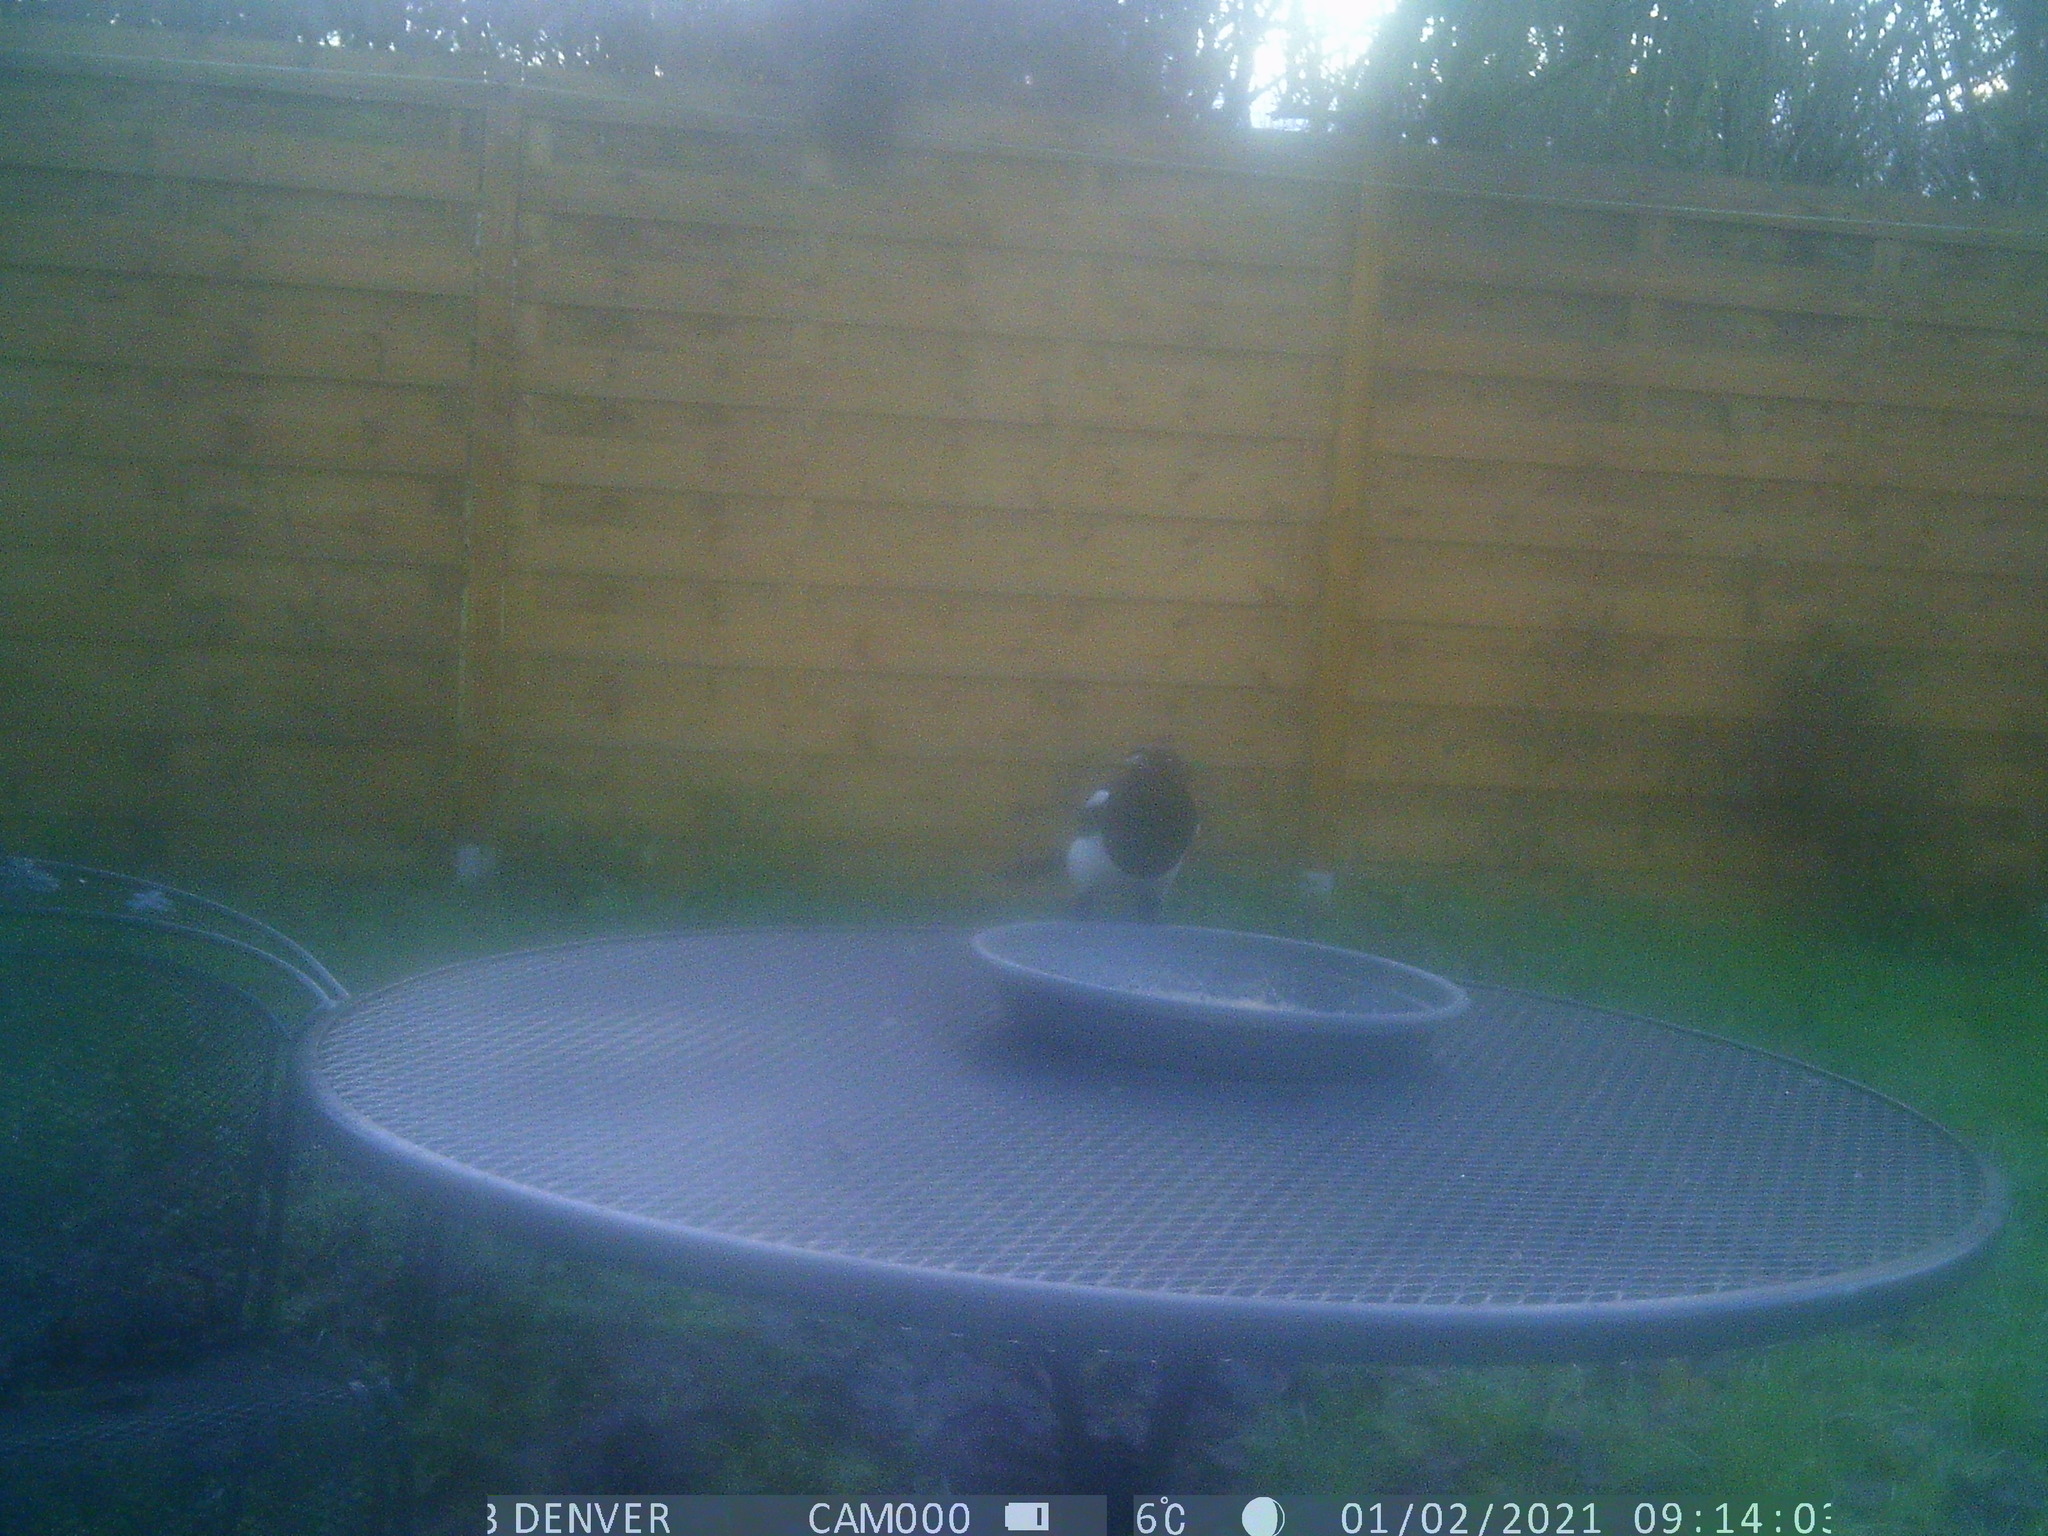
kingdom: Animalia
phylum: Chordata
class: Aves
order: Passeriformes
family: Corvidae
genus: Pica
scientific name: Pica pica
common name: Eurasian magpie
